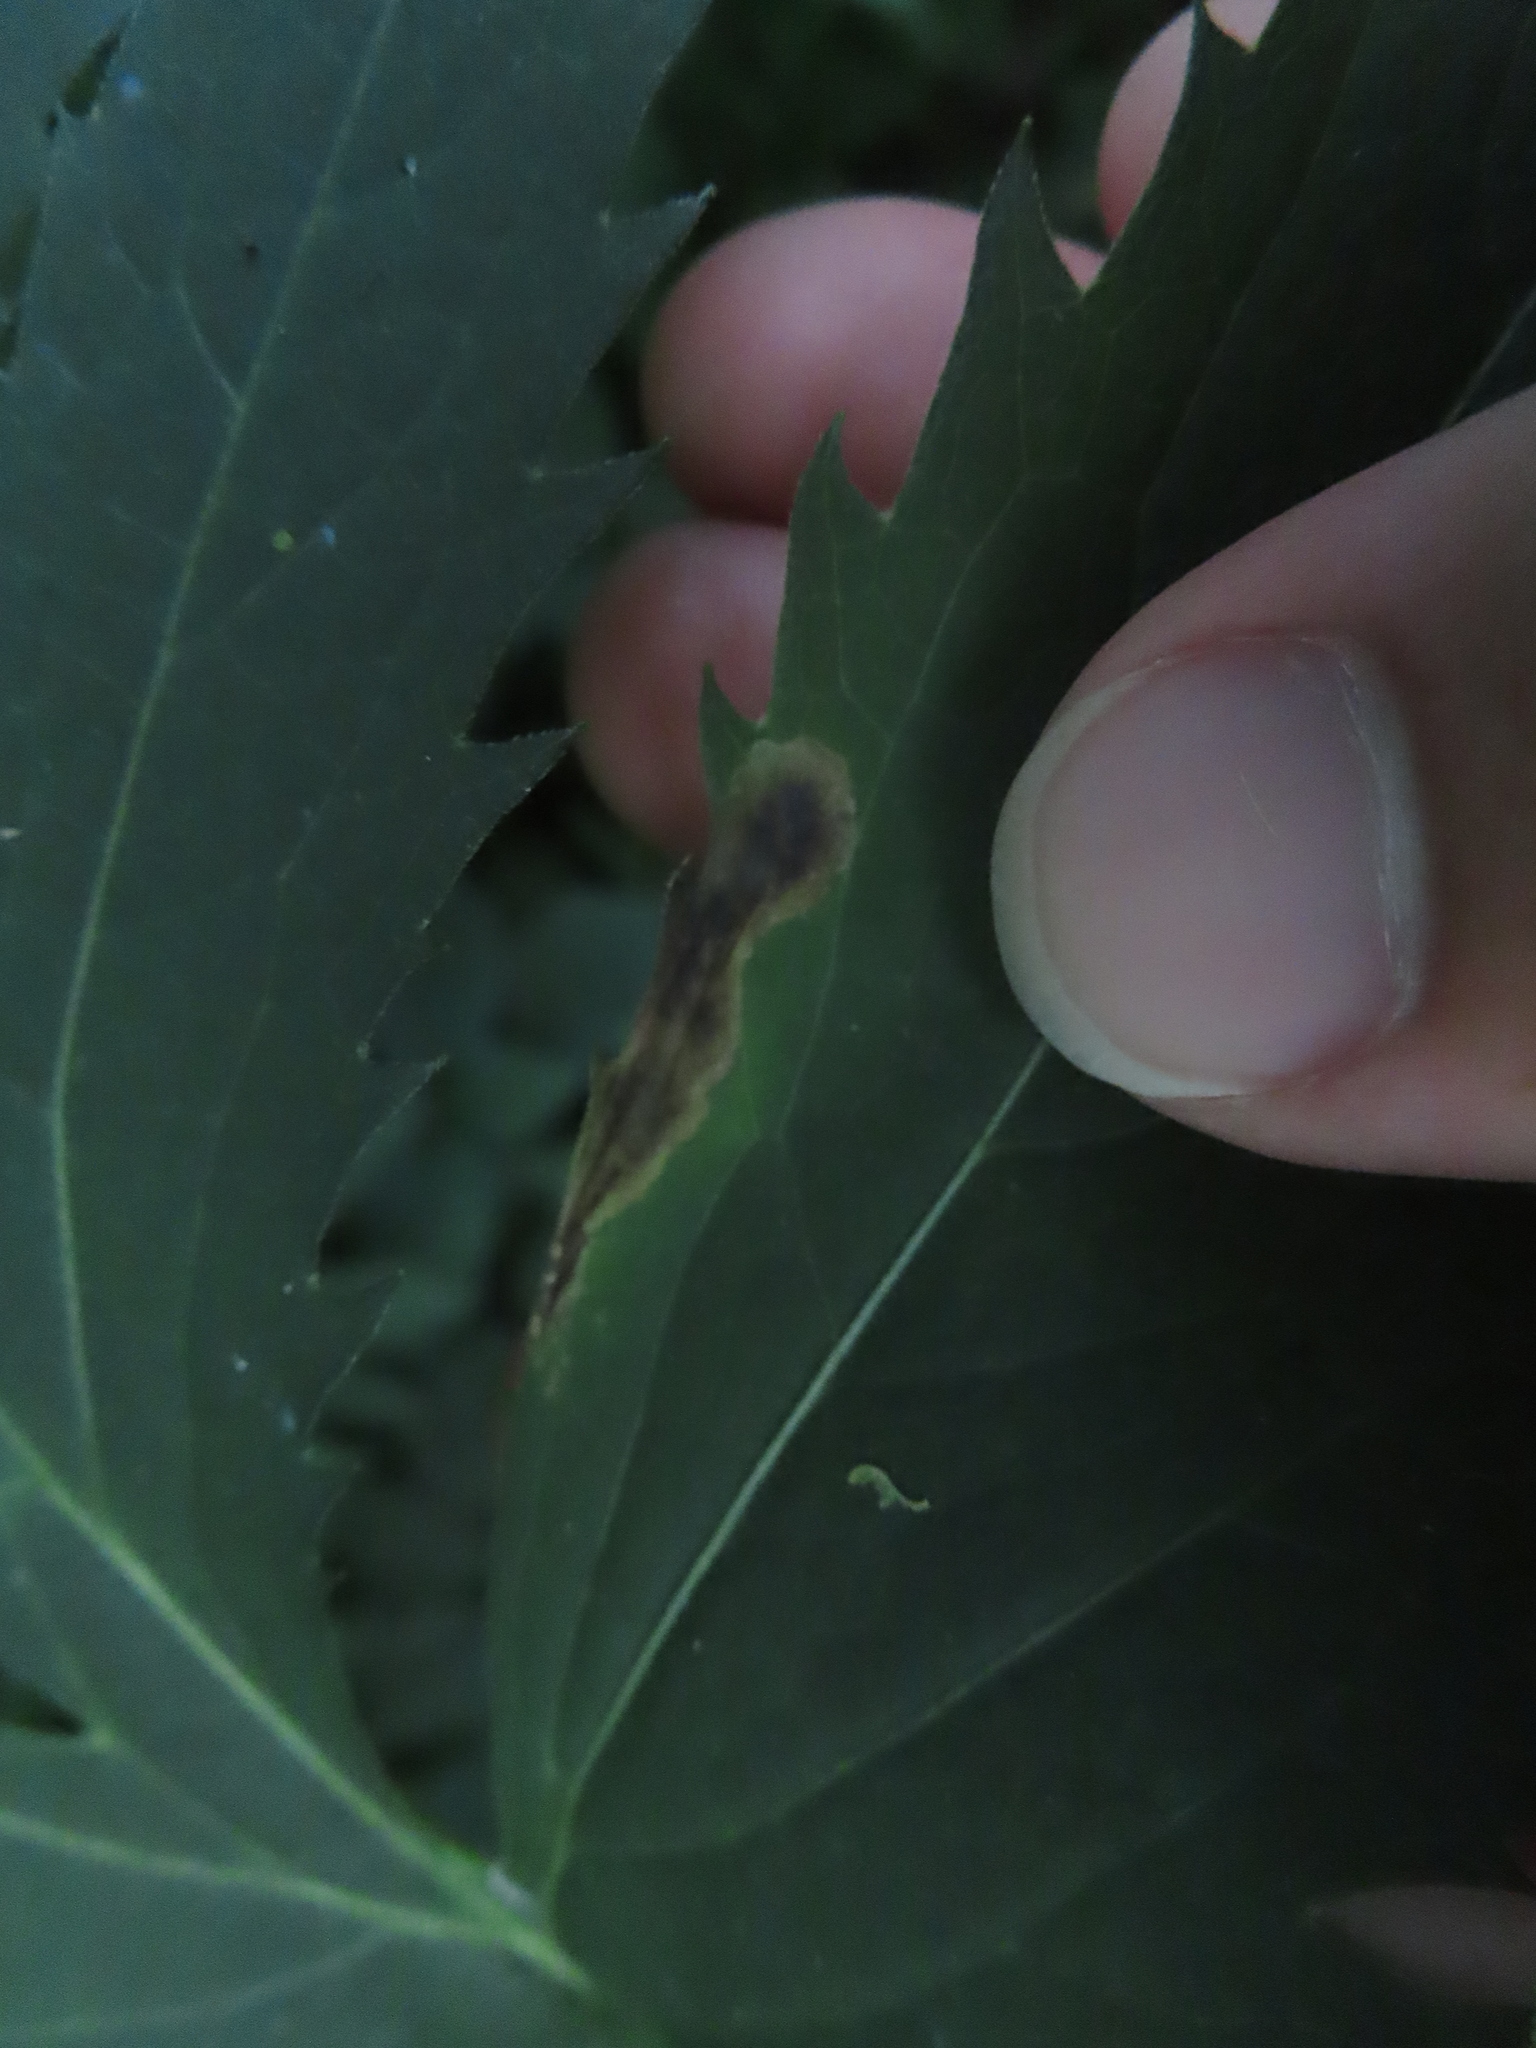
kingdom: Animalia
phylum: Arthropoda
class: Insecta
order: Diptera
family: Agromyzidae
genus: Nemorimyza
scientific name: Nemorimyza posticata
